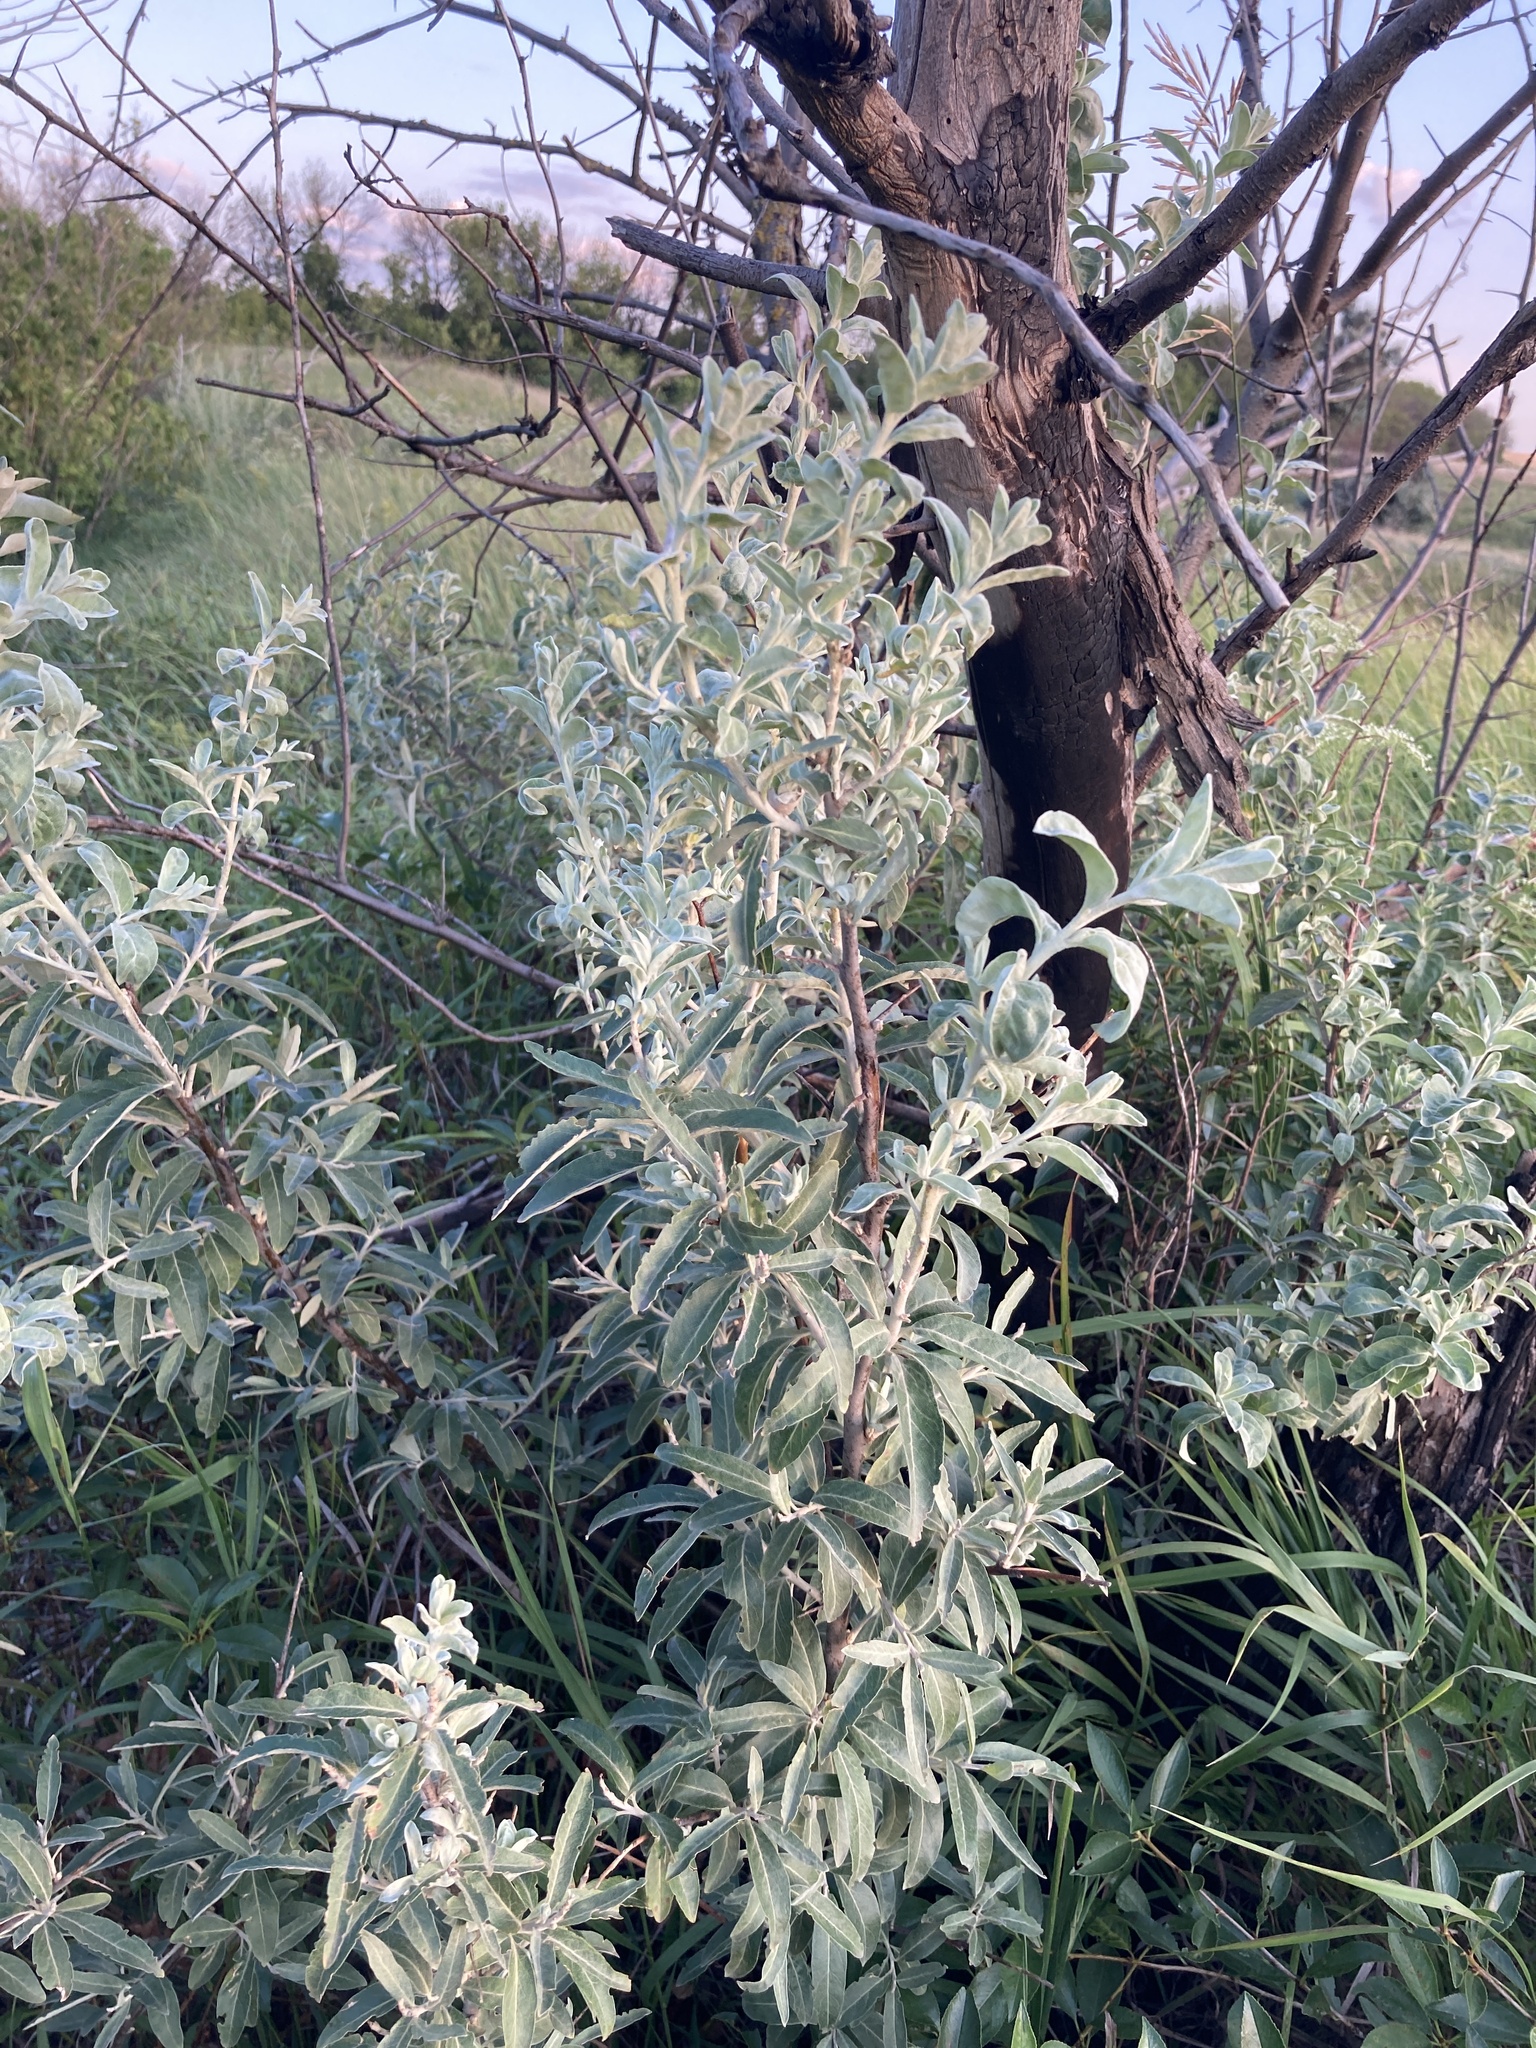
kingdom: Plantae
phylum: Tracheophyta
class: Magnoliopsida
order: Rosales
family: Elaeagnaceae
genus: Elaeagnus
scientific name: Elaeagnus angustifolia
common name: Russian olive
